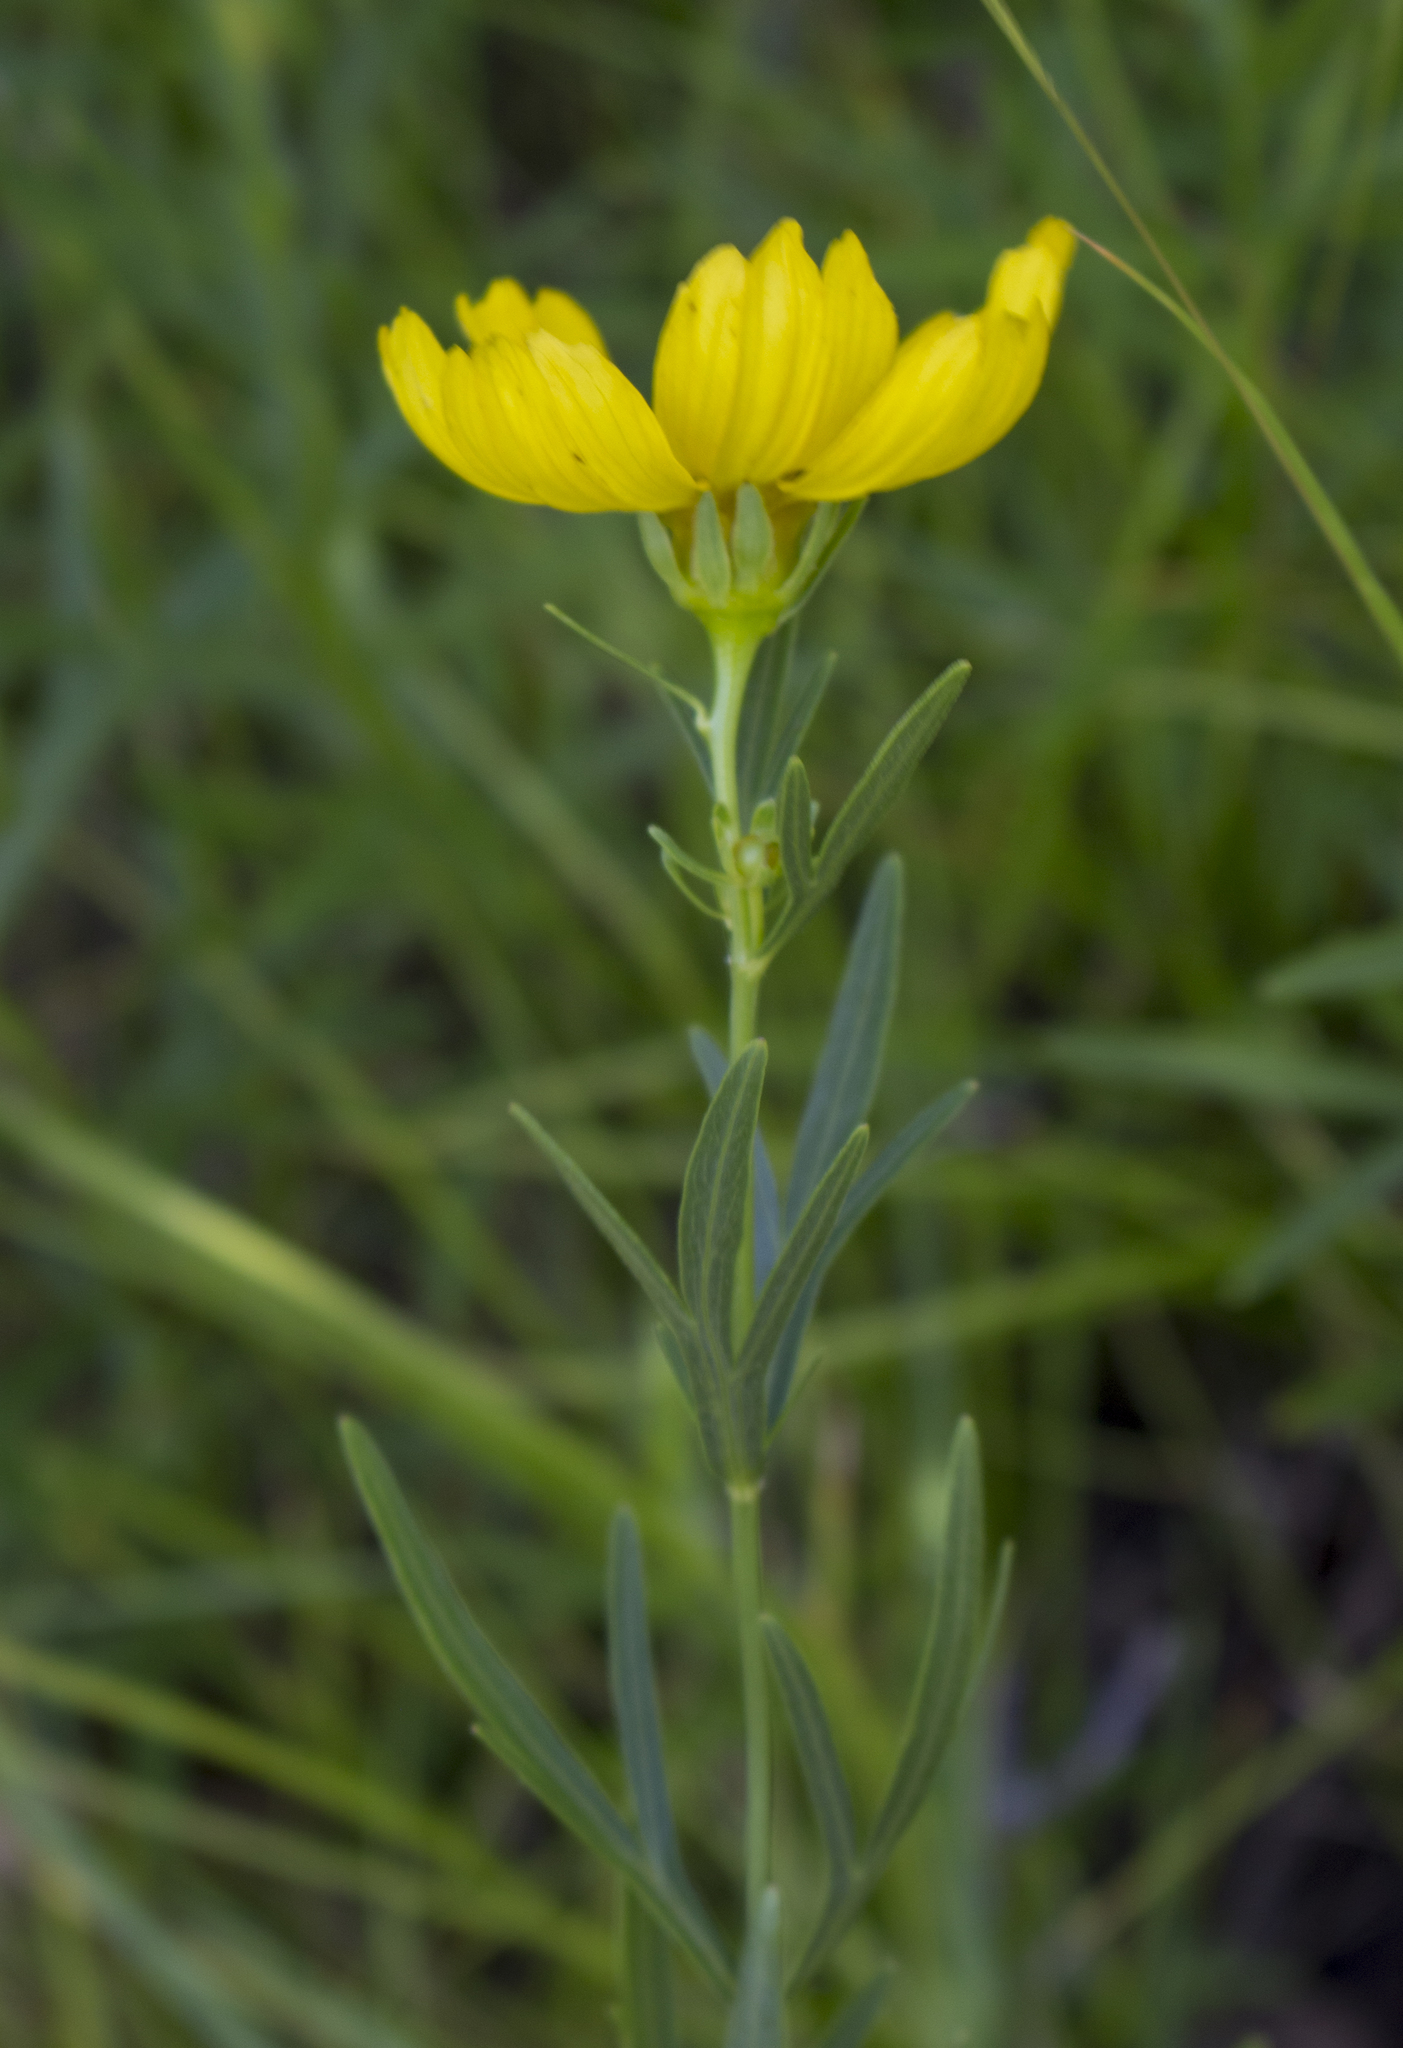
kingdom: Plantae
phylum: Tracheophyta
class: Magnoliopsida
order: Asterales
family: Asteraceae
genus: Coreopsis
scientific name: Coreopsis palmata
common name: Prairie coreopsis
